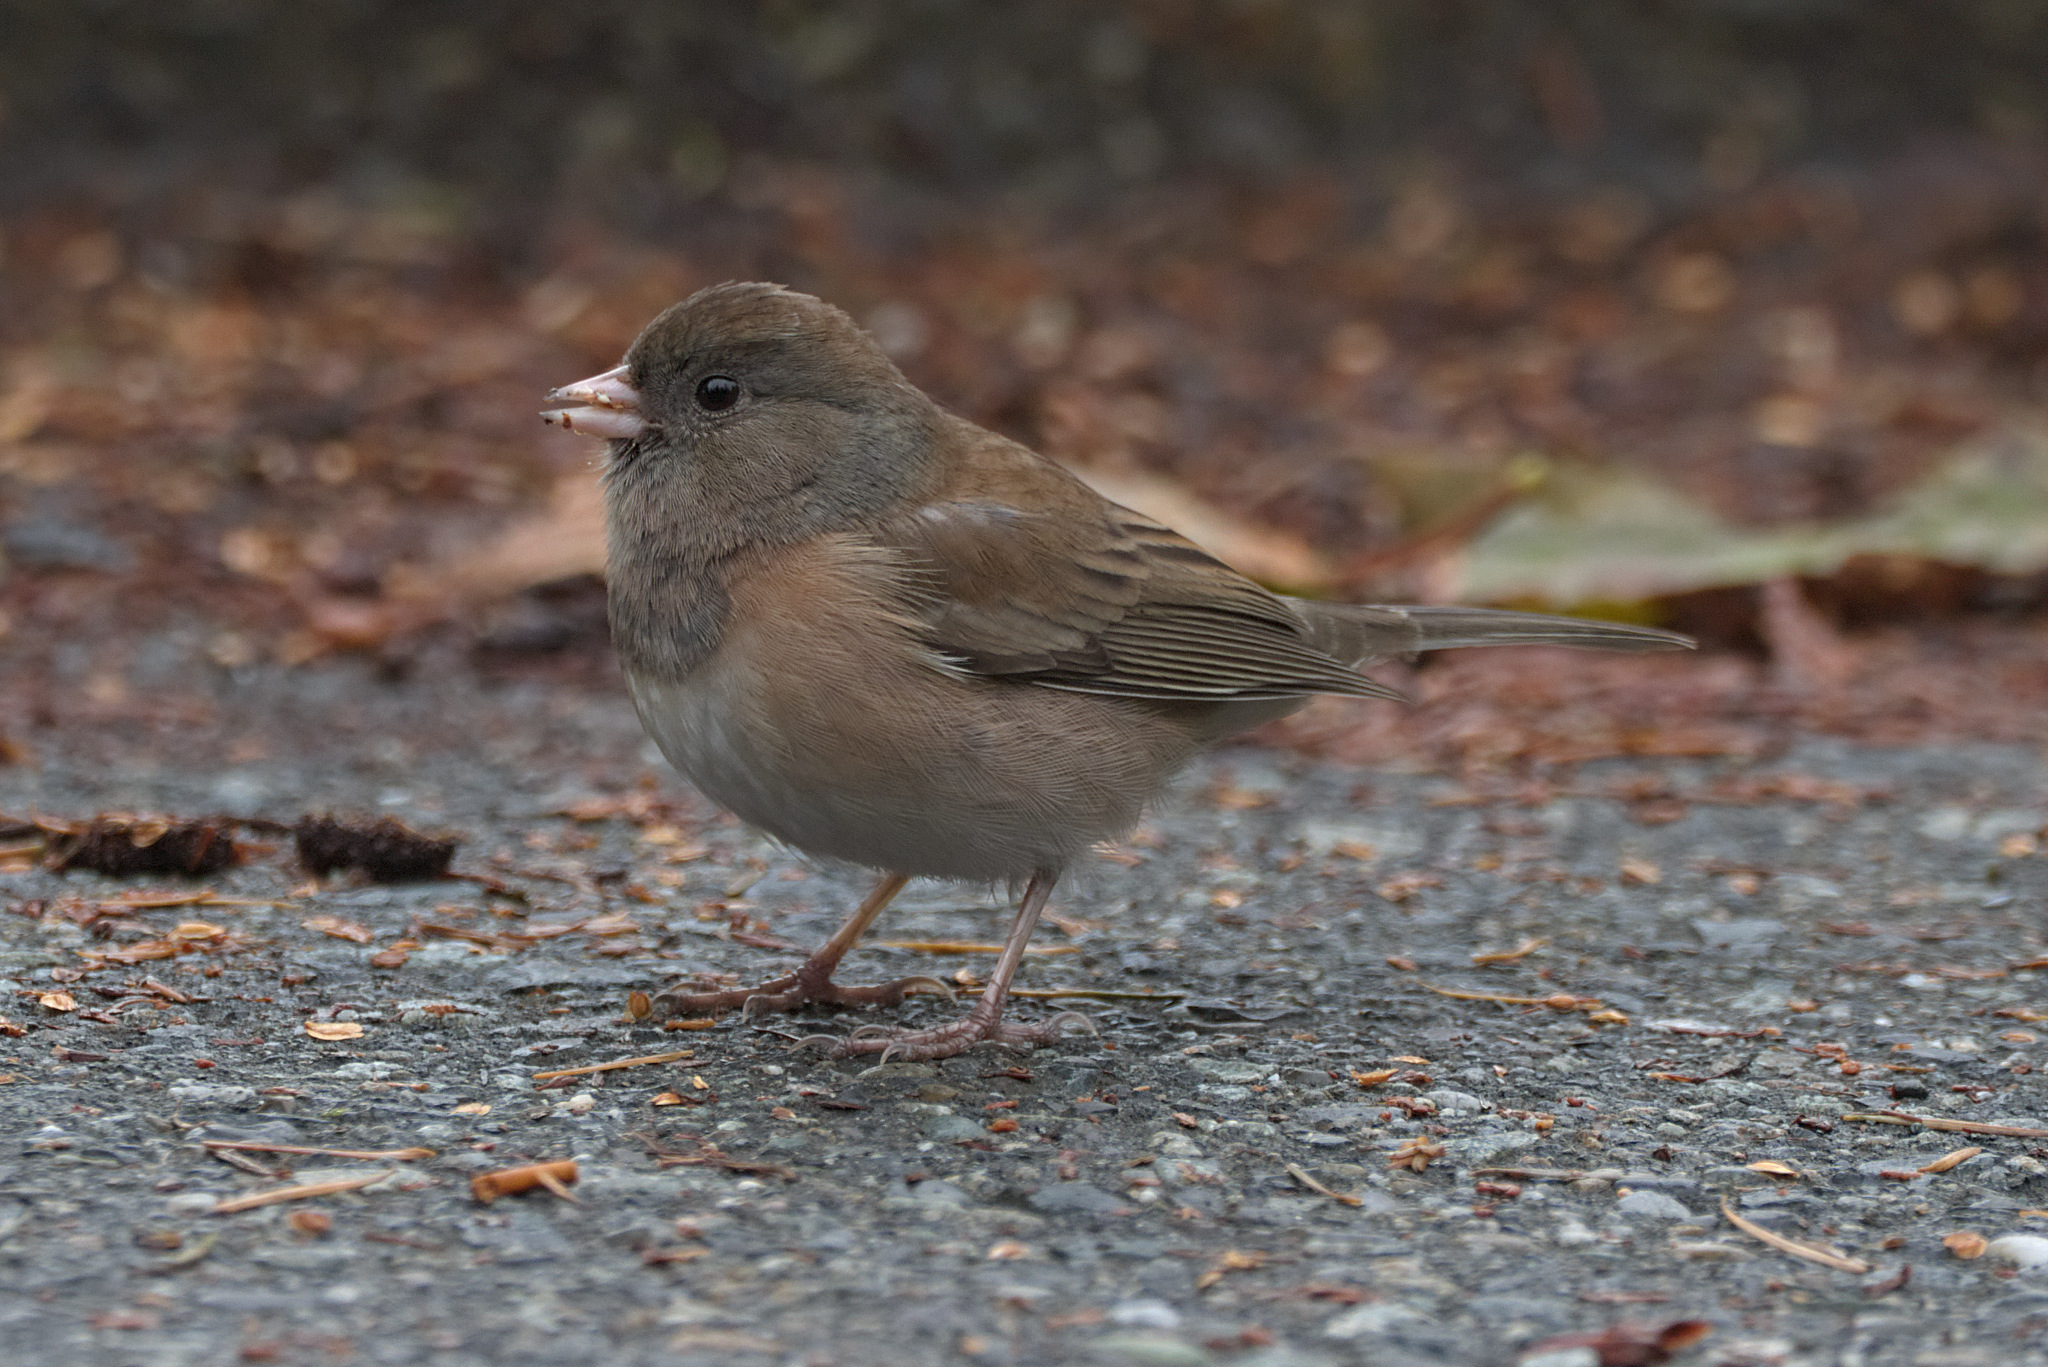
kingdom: Animalia
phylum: Chordata
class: Aves
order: Passeriformes
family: Passerellidae
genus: Junco
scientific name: Junco hyemalis
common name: Dark-eyed junco
